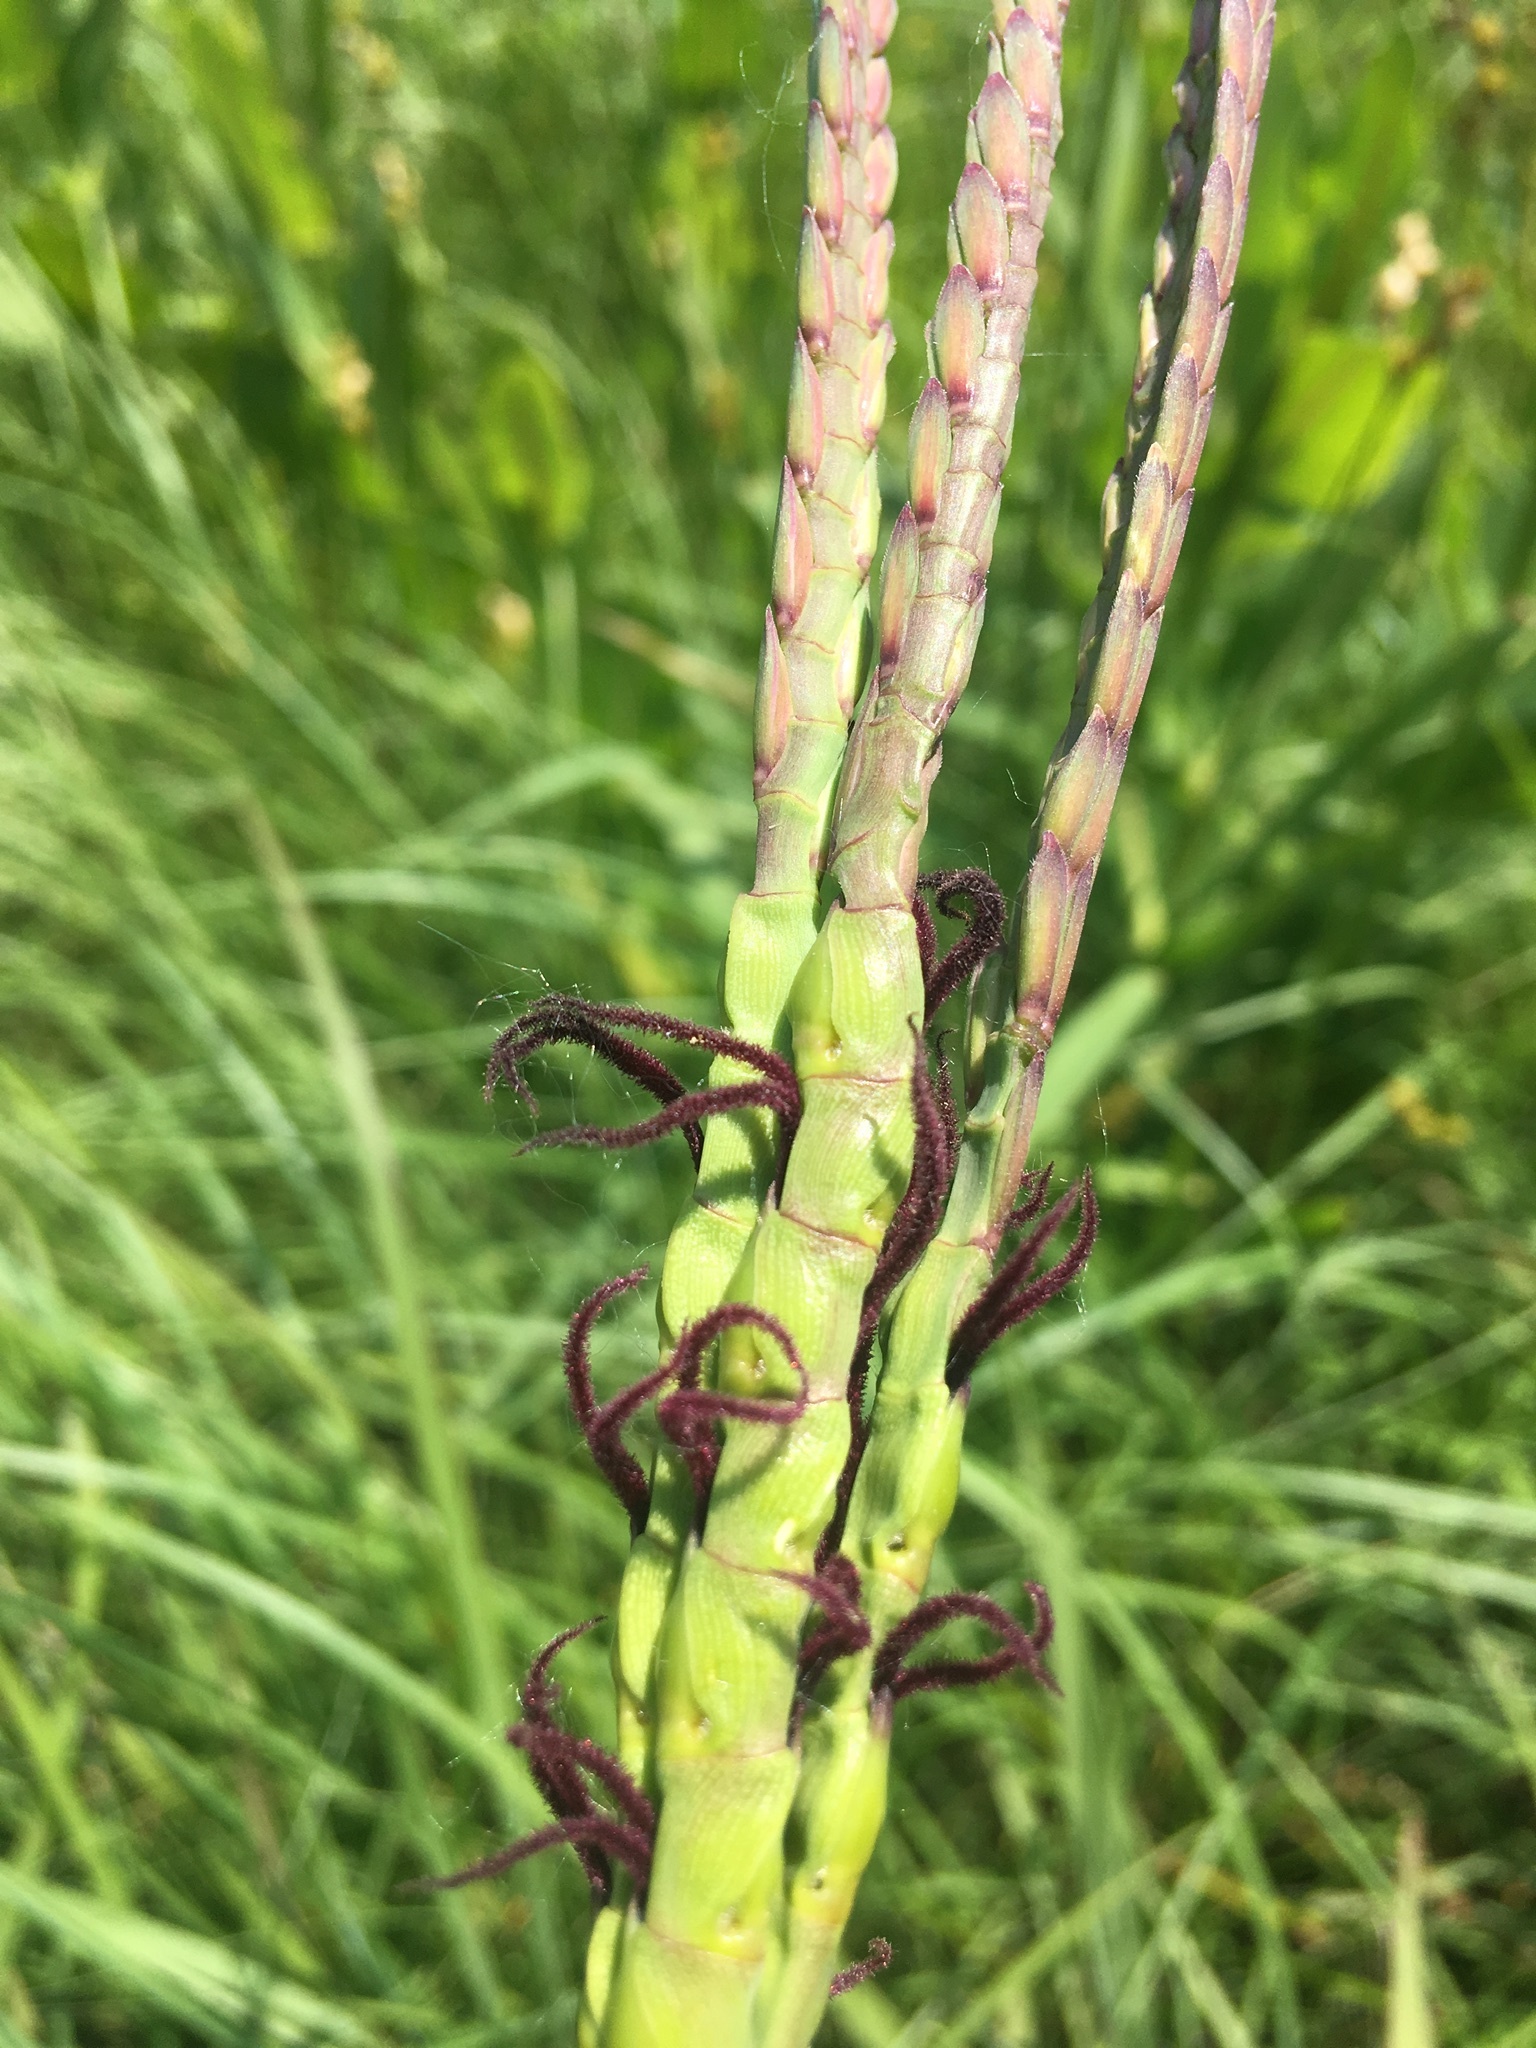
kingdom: Plantae
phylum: Tracheophyta
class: Liliopsida
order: Poales
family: Poaceae
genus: Tripsacum
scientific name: Tripsacum dactyloides
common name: Buffalo-grass
